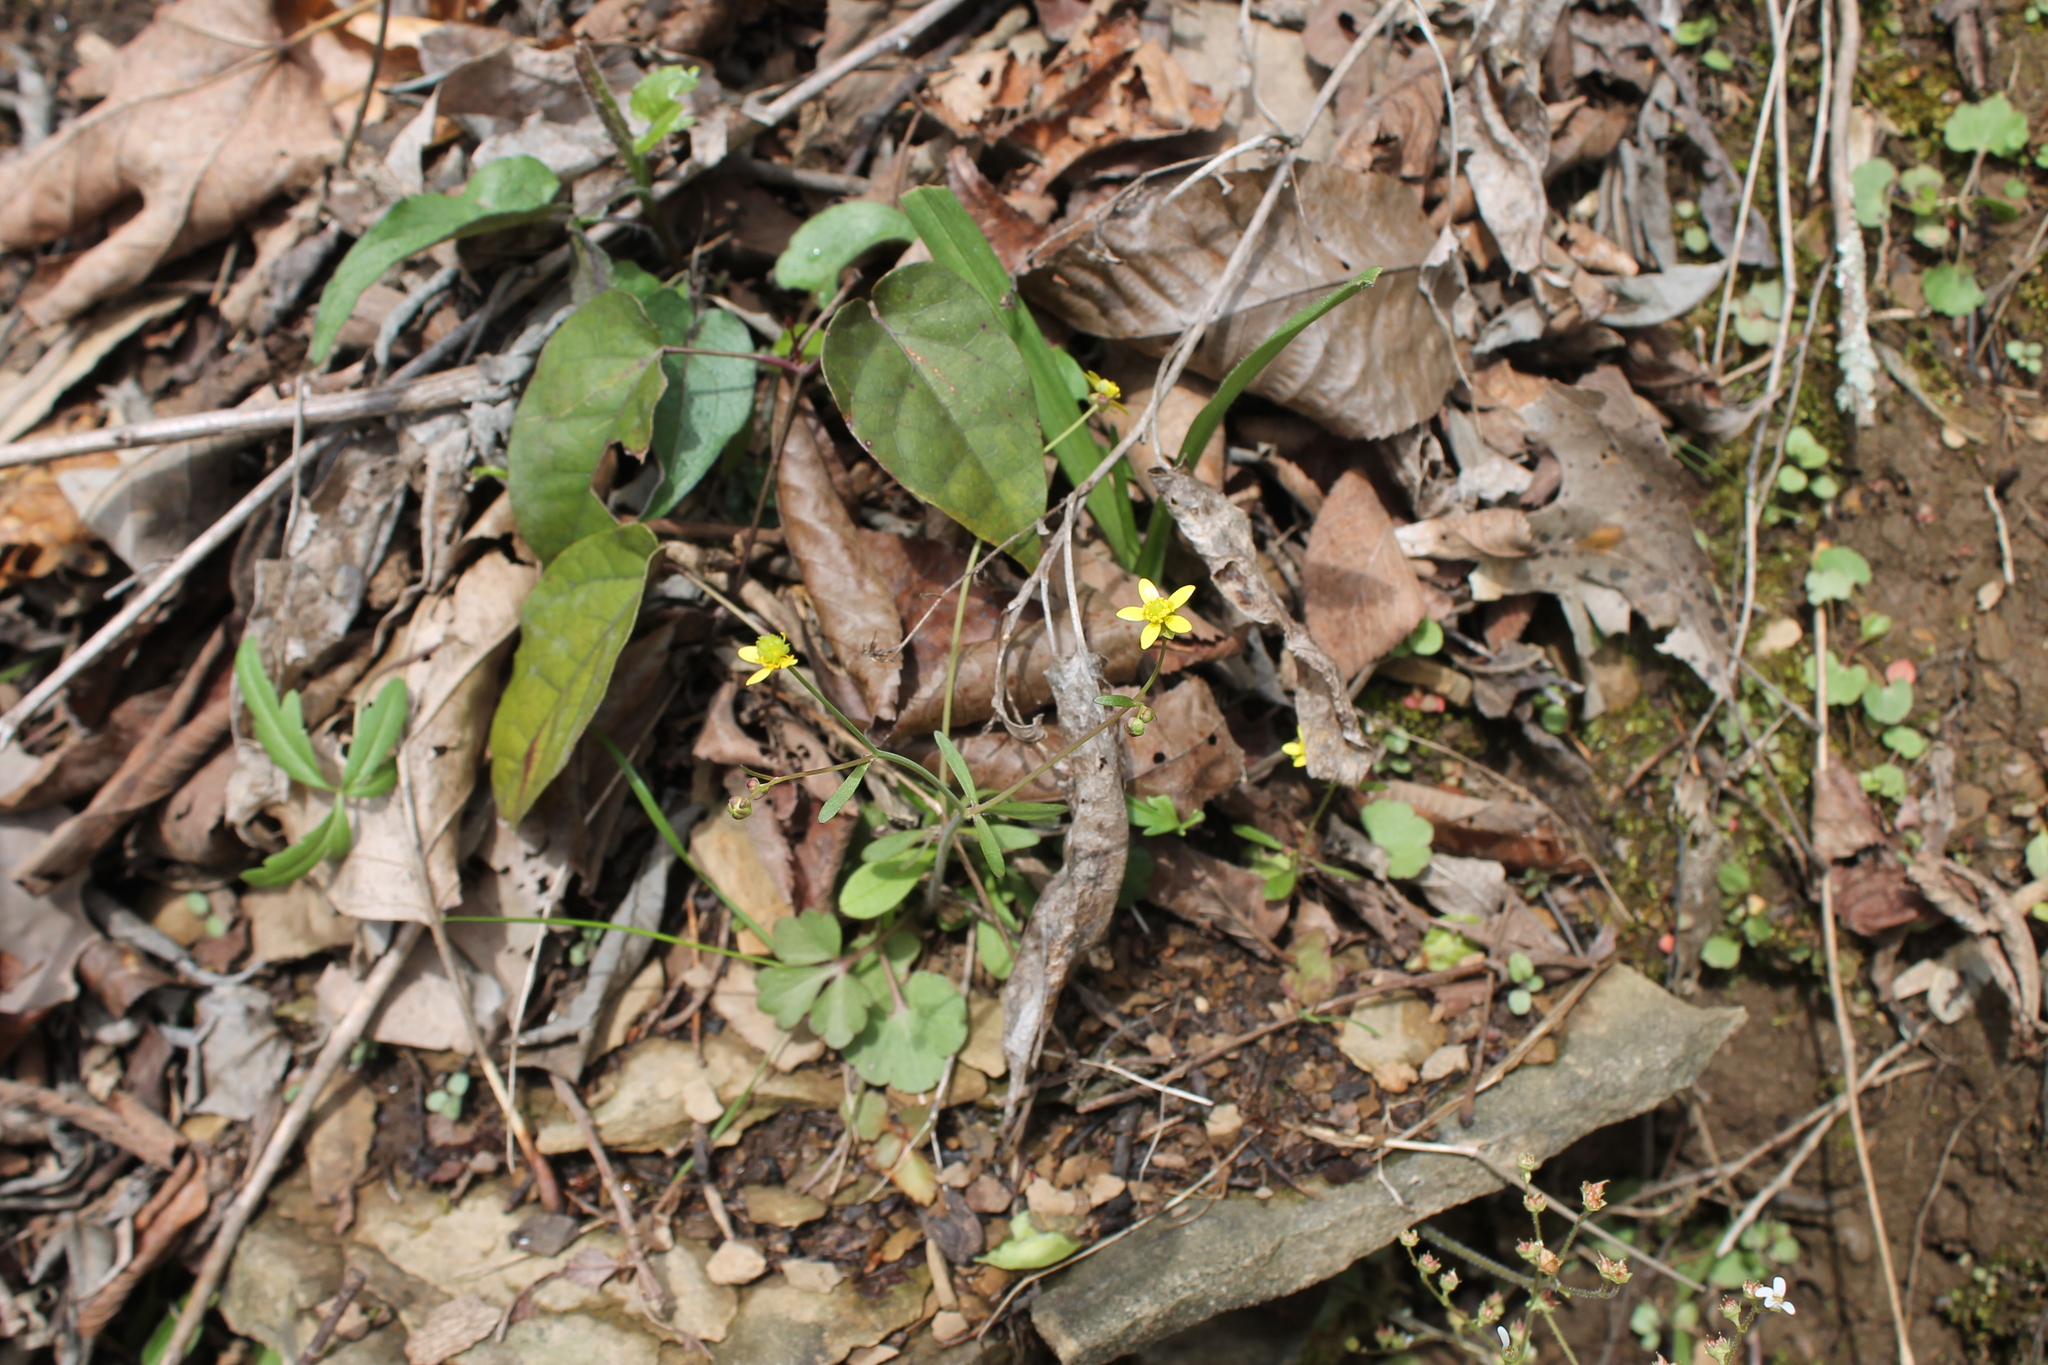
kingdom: Plantae
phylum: Tracheophyta
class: Magnoliopsida
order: Ranunculales
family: Ranunculaceae
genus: Ranunculus
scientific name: Ranunculus harveyi
